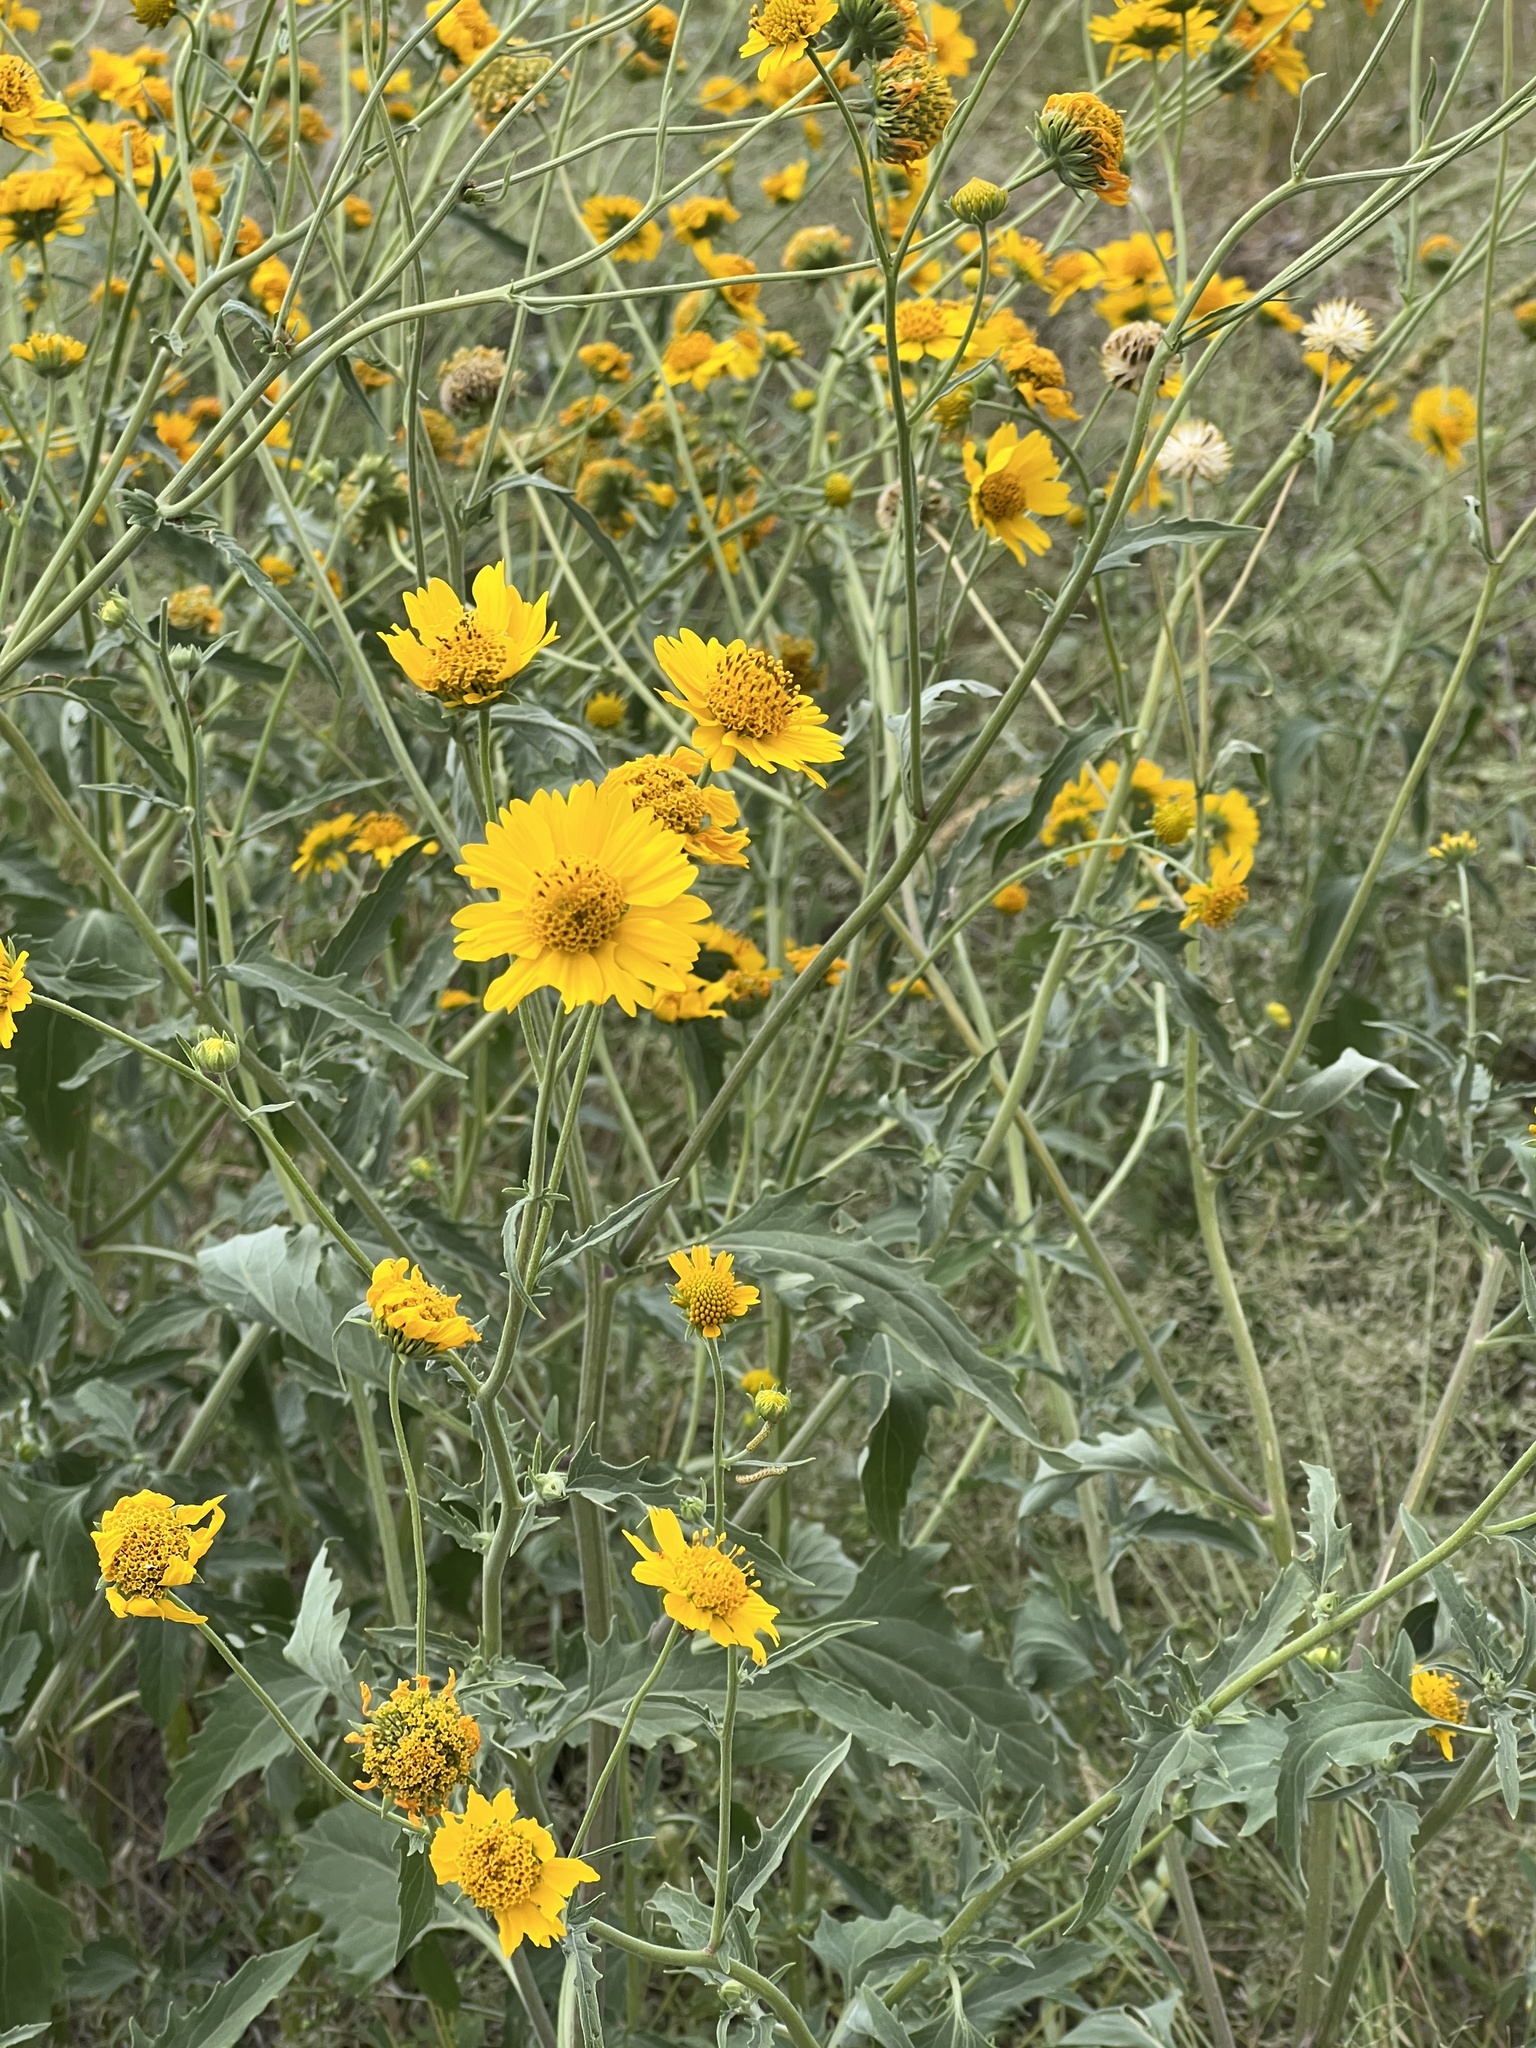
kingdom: Plantae
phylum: Tracheophyta
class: Magnoliopsida
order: Asterales
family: Asteraceae
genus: Verbesina
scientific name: Verbesina encelioides
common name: Golden crownbeard
